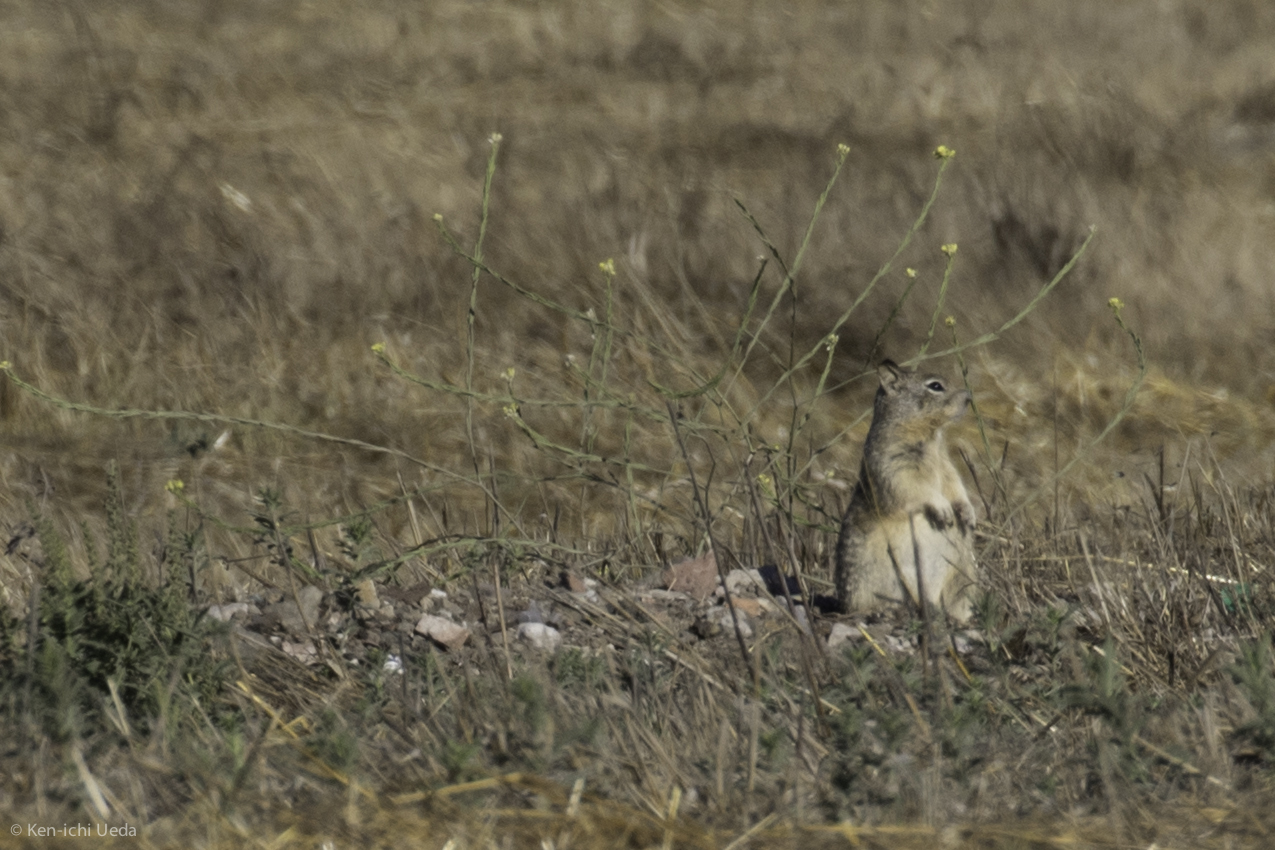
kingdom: Animalia
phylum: Chordata
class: Mammalia
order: Rodentia
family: Sciuridae
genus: Otospermophilus
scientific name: Otospermophilus beecheyi
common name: California ground squirrel
